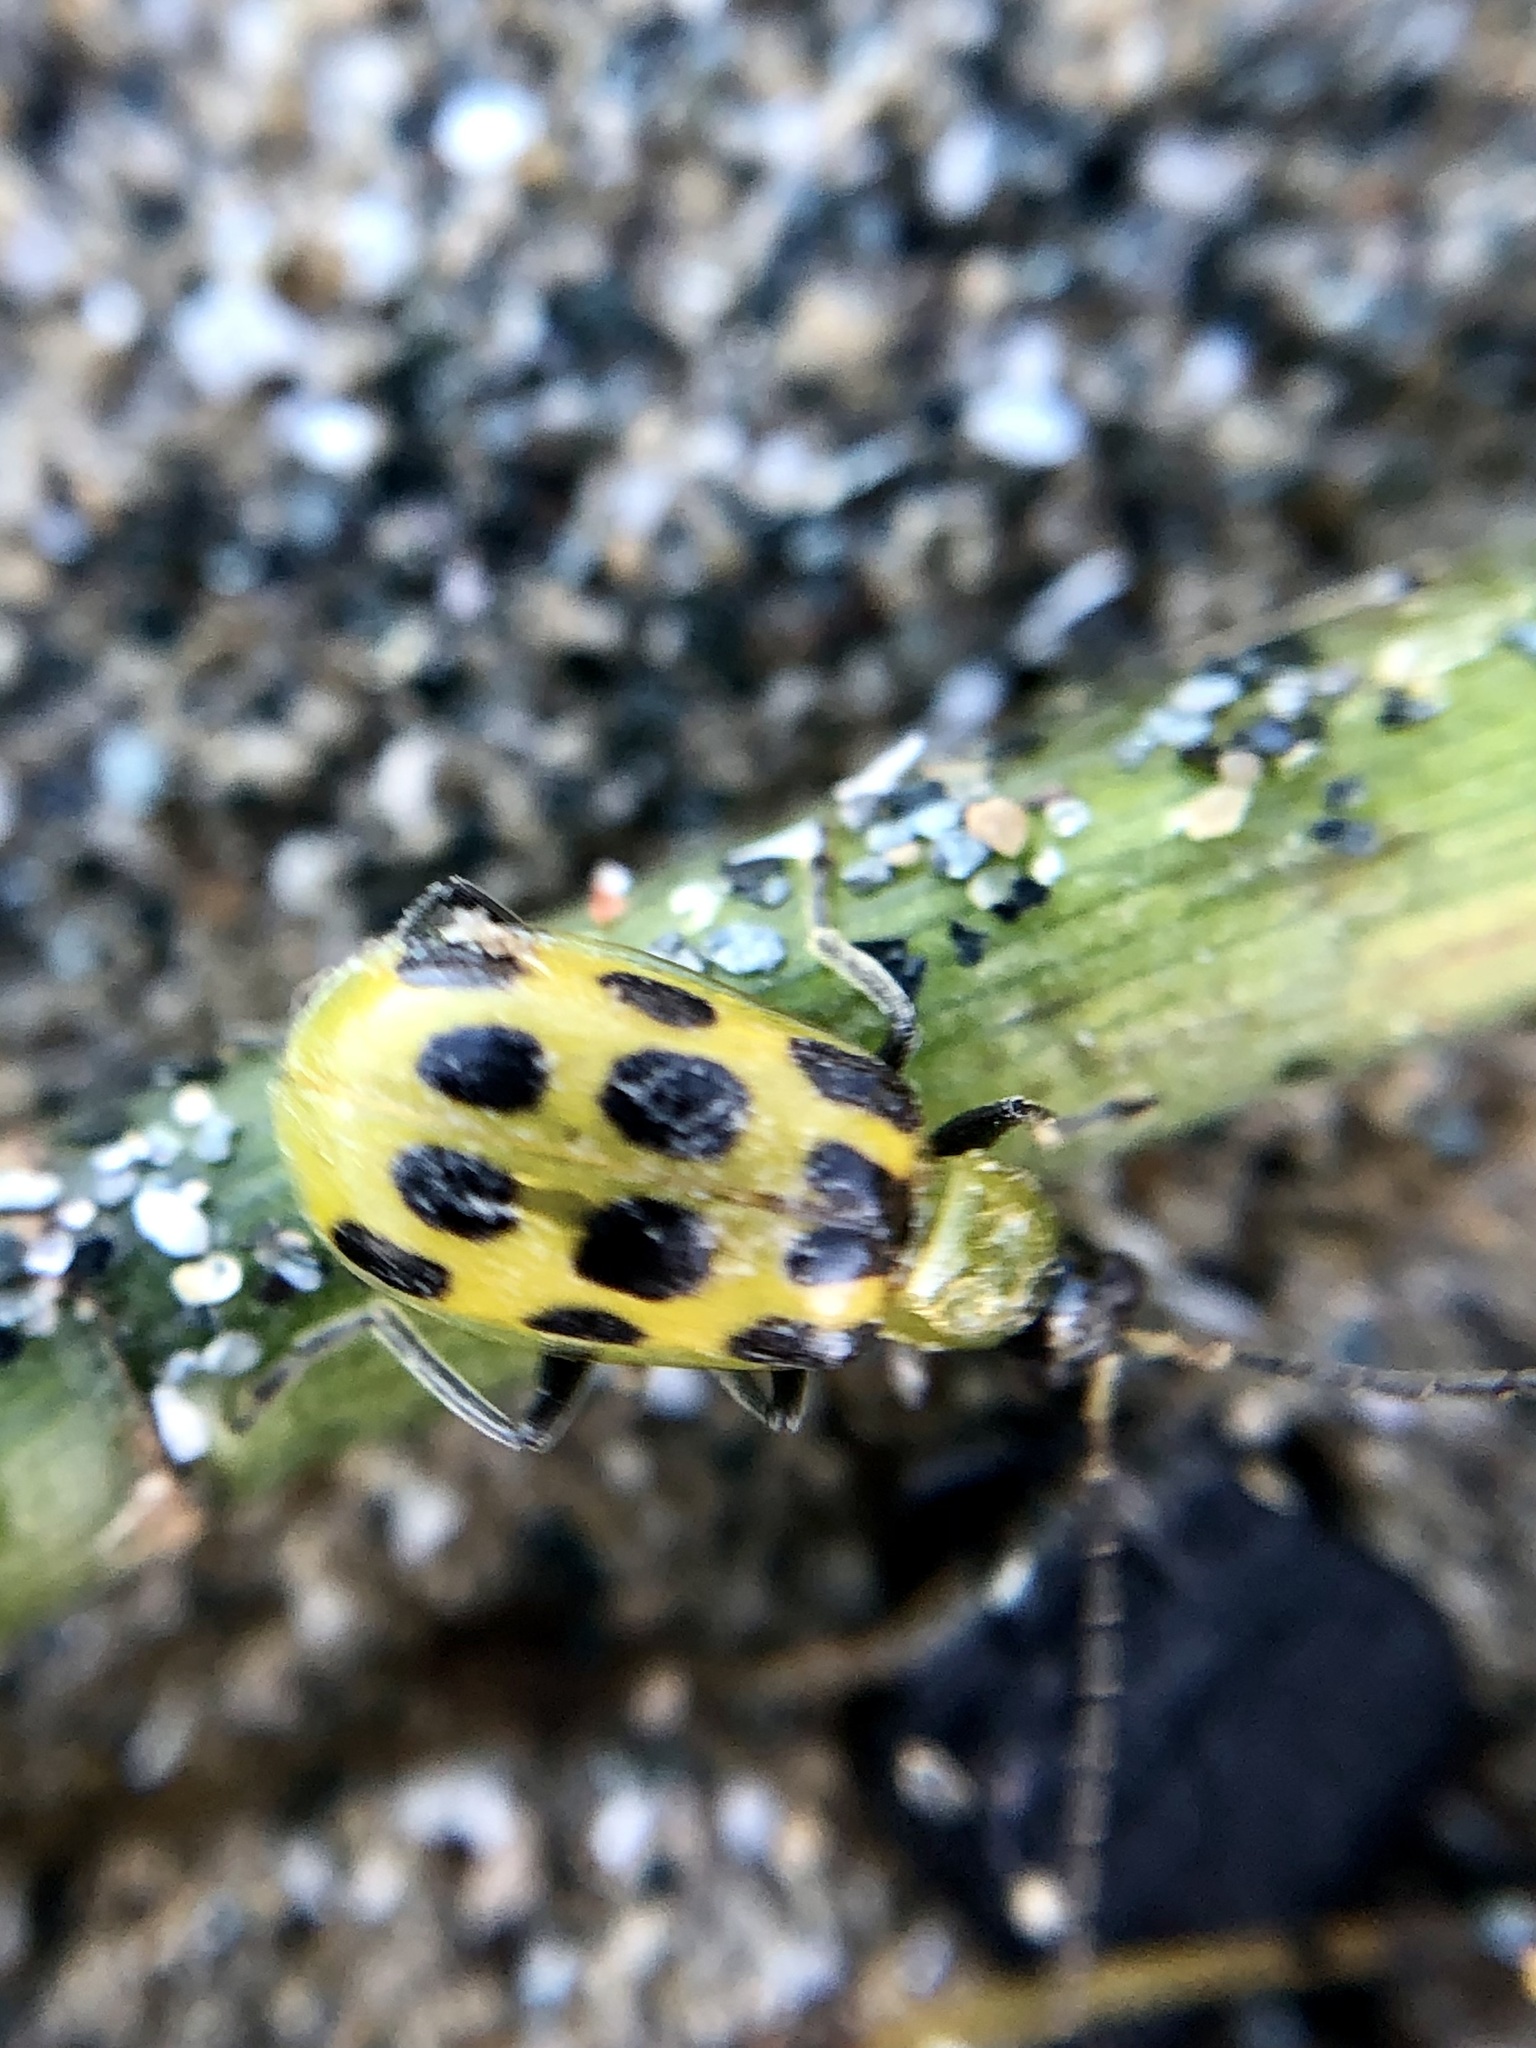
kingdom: Animalia
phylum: Arthropoda
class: Insecta
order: Coleoptera
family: Chrysomelidae
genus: Diabrotica
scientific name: Diabrotica undecimpunctata
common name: Spotted cucumber beetle
